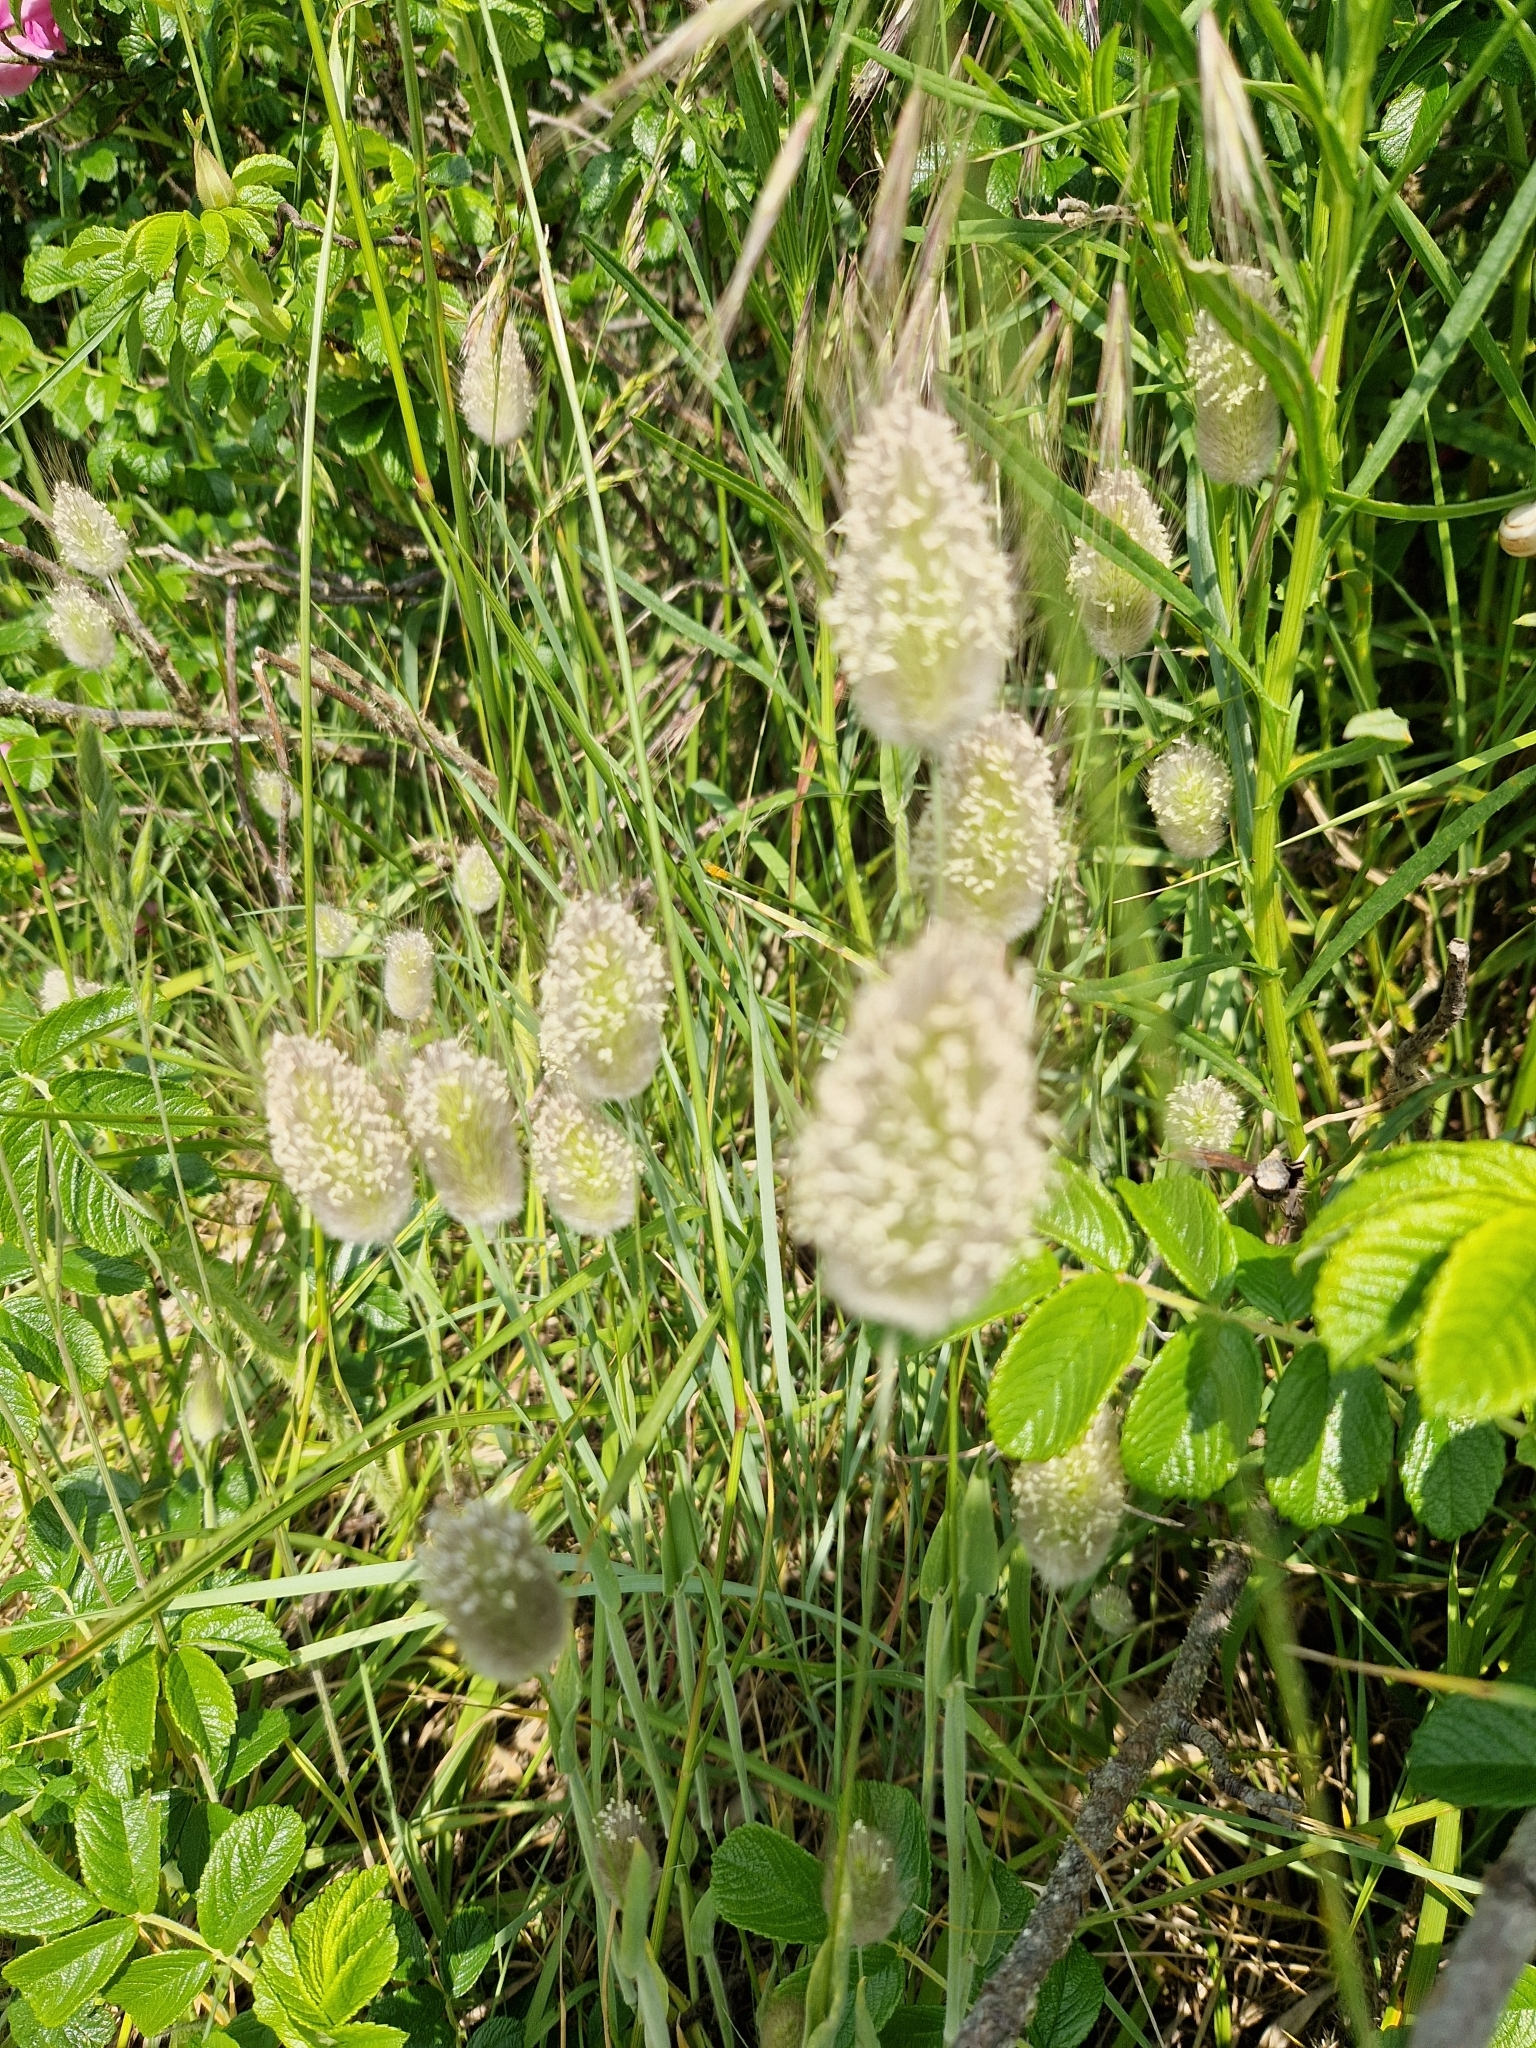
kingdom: Plantae
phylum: Tracheophyta
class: Liliopsida
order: Poales
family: Poaceae
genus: Lagurus
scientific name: Lagurus ovatus
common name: Hare's-tail
